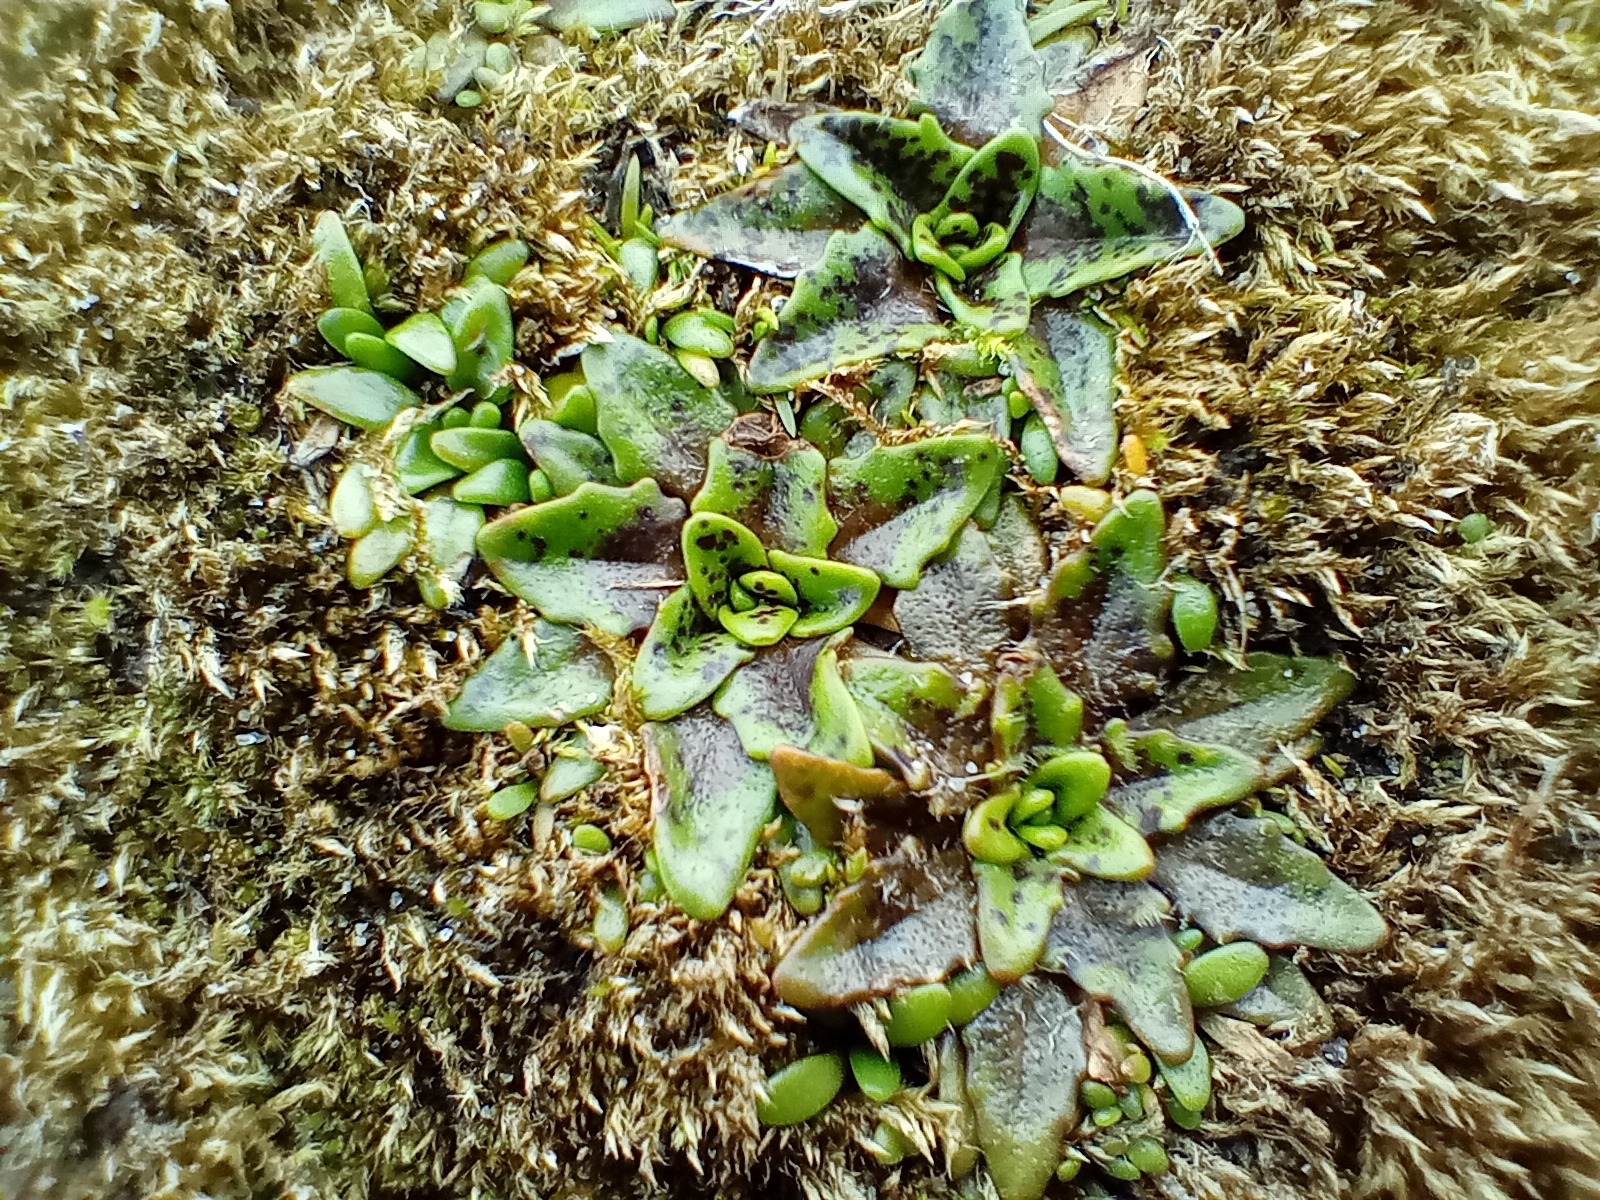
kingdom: Plantae
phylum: Tracheophyta
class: Magnoliopsida
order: Lamiales
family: Plantaginaceae
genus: Plantago
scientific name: Plantago triandra
